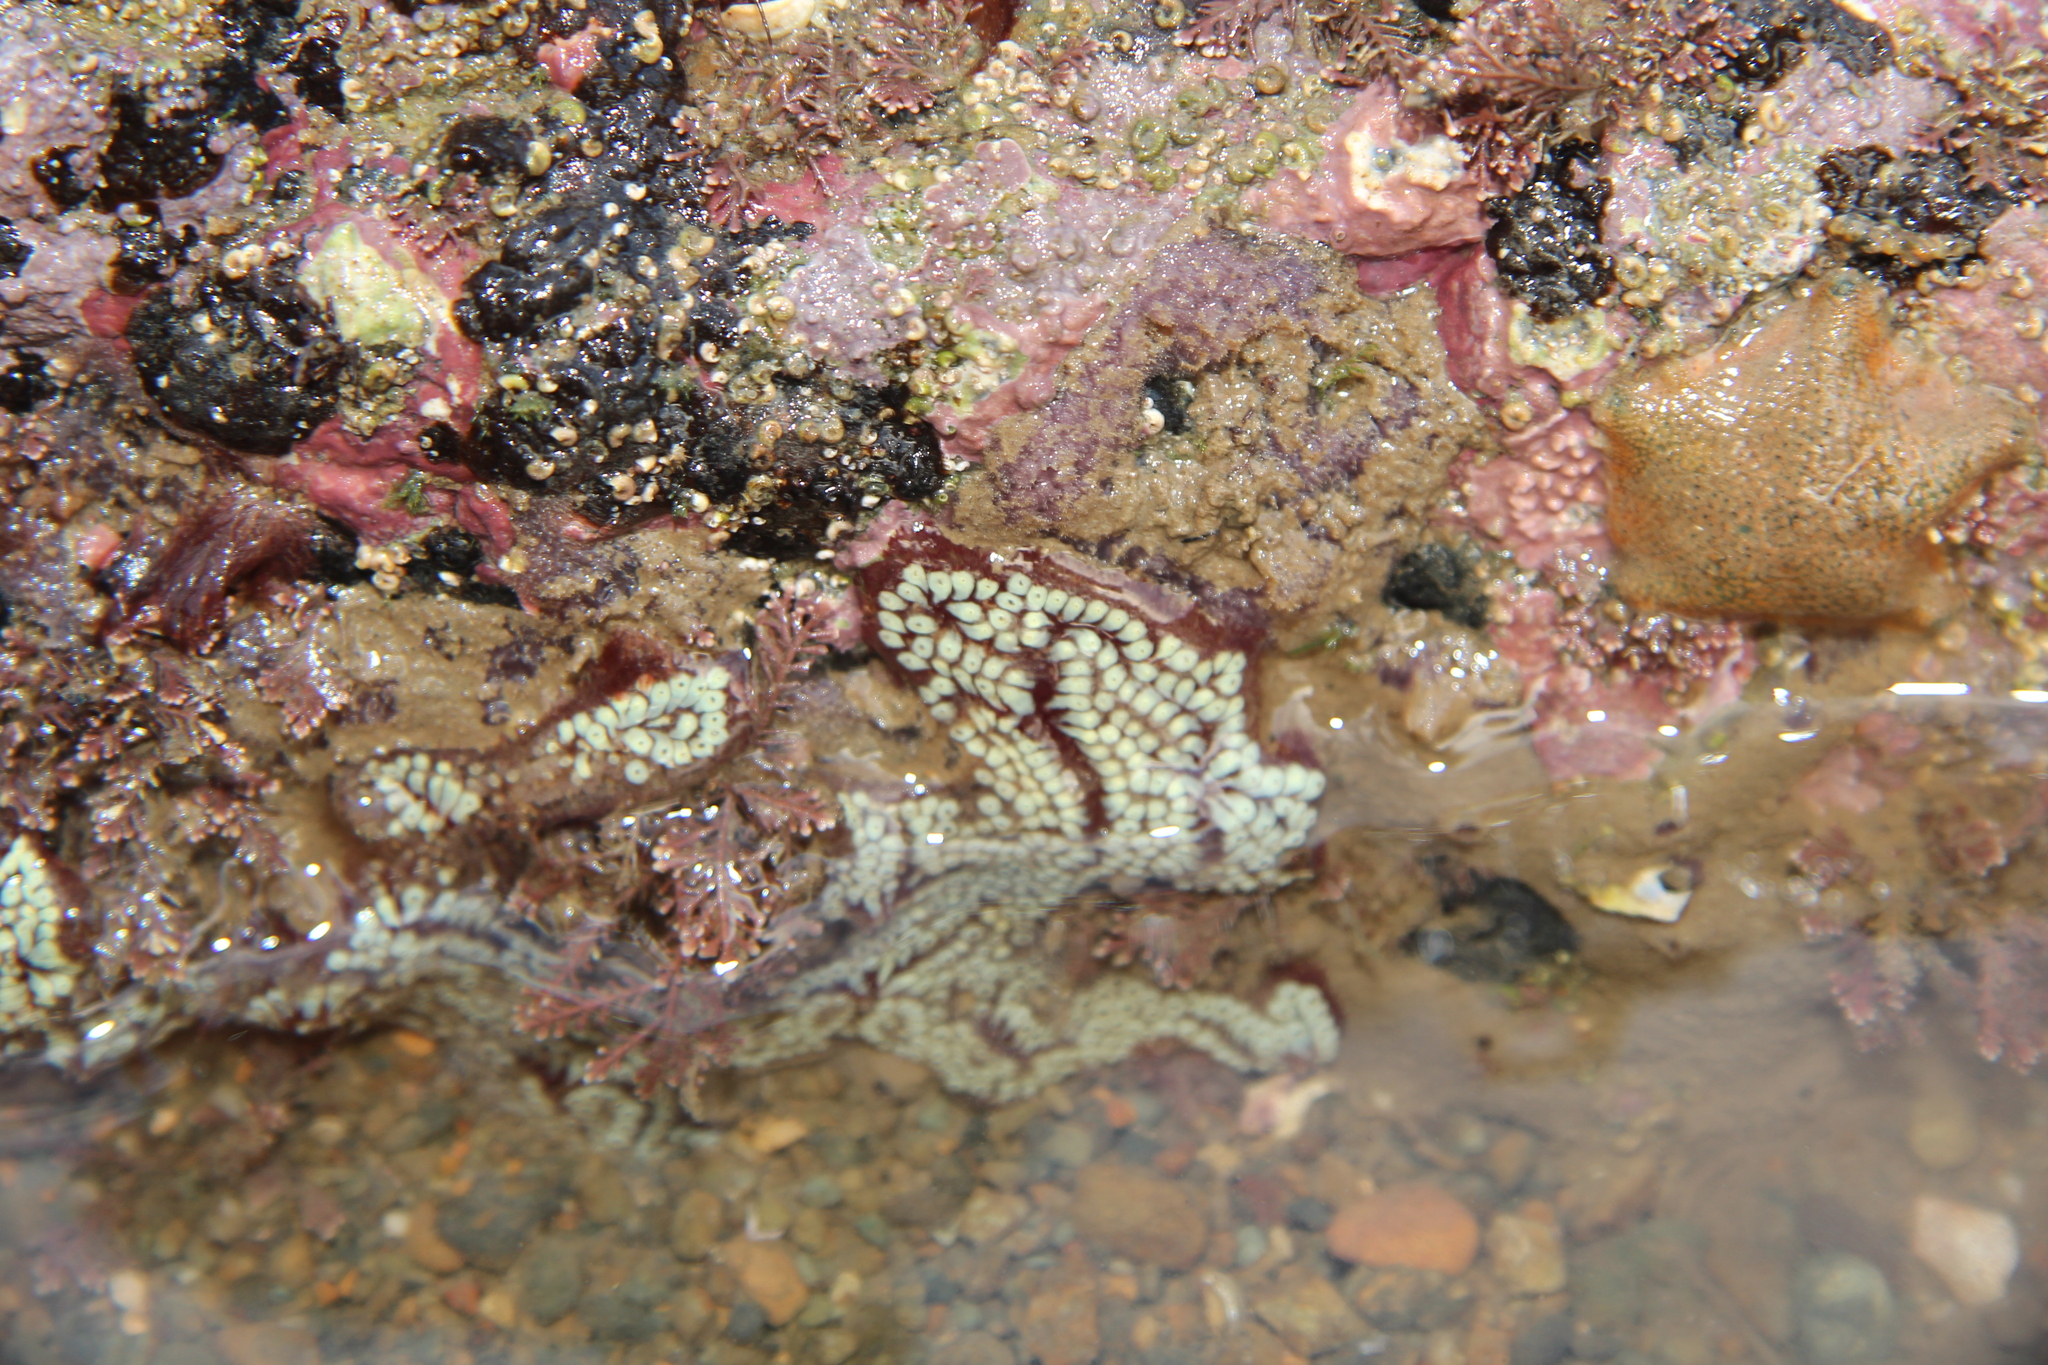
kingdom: Animalia
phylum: Chordata
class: Ascidiacea
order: Stolidobranchia
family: Styelidae
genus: Botrylloides
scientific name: Botrylloides diegensis
